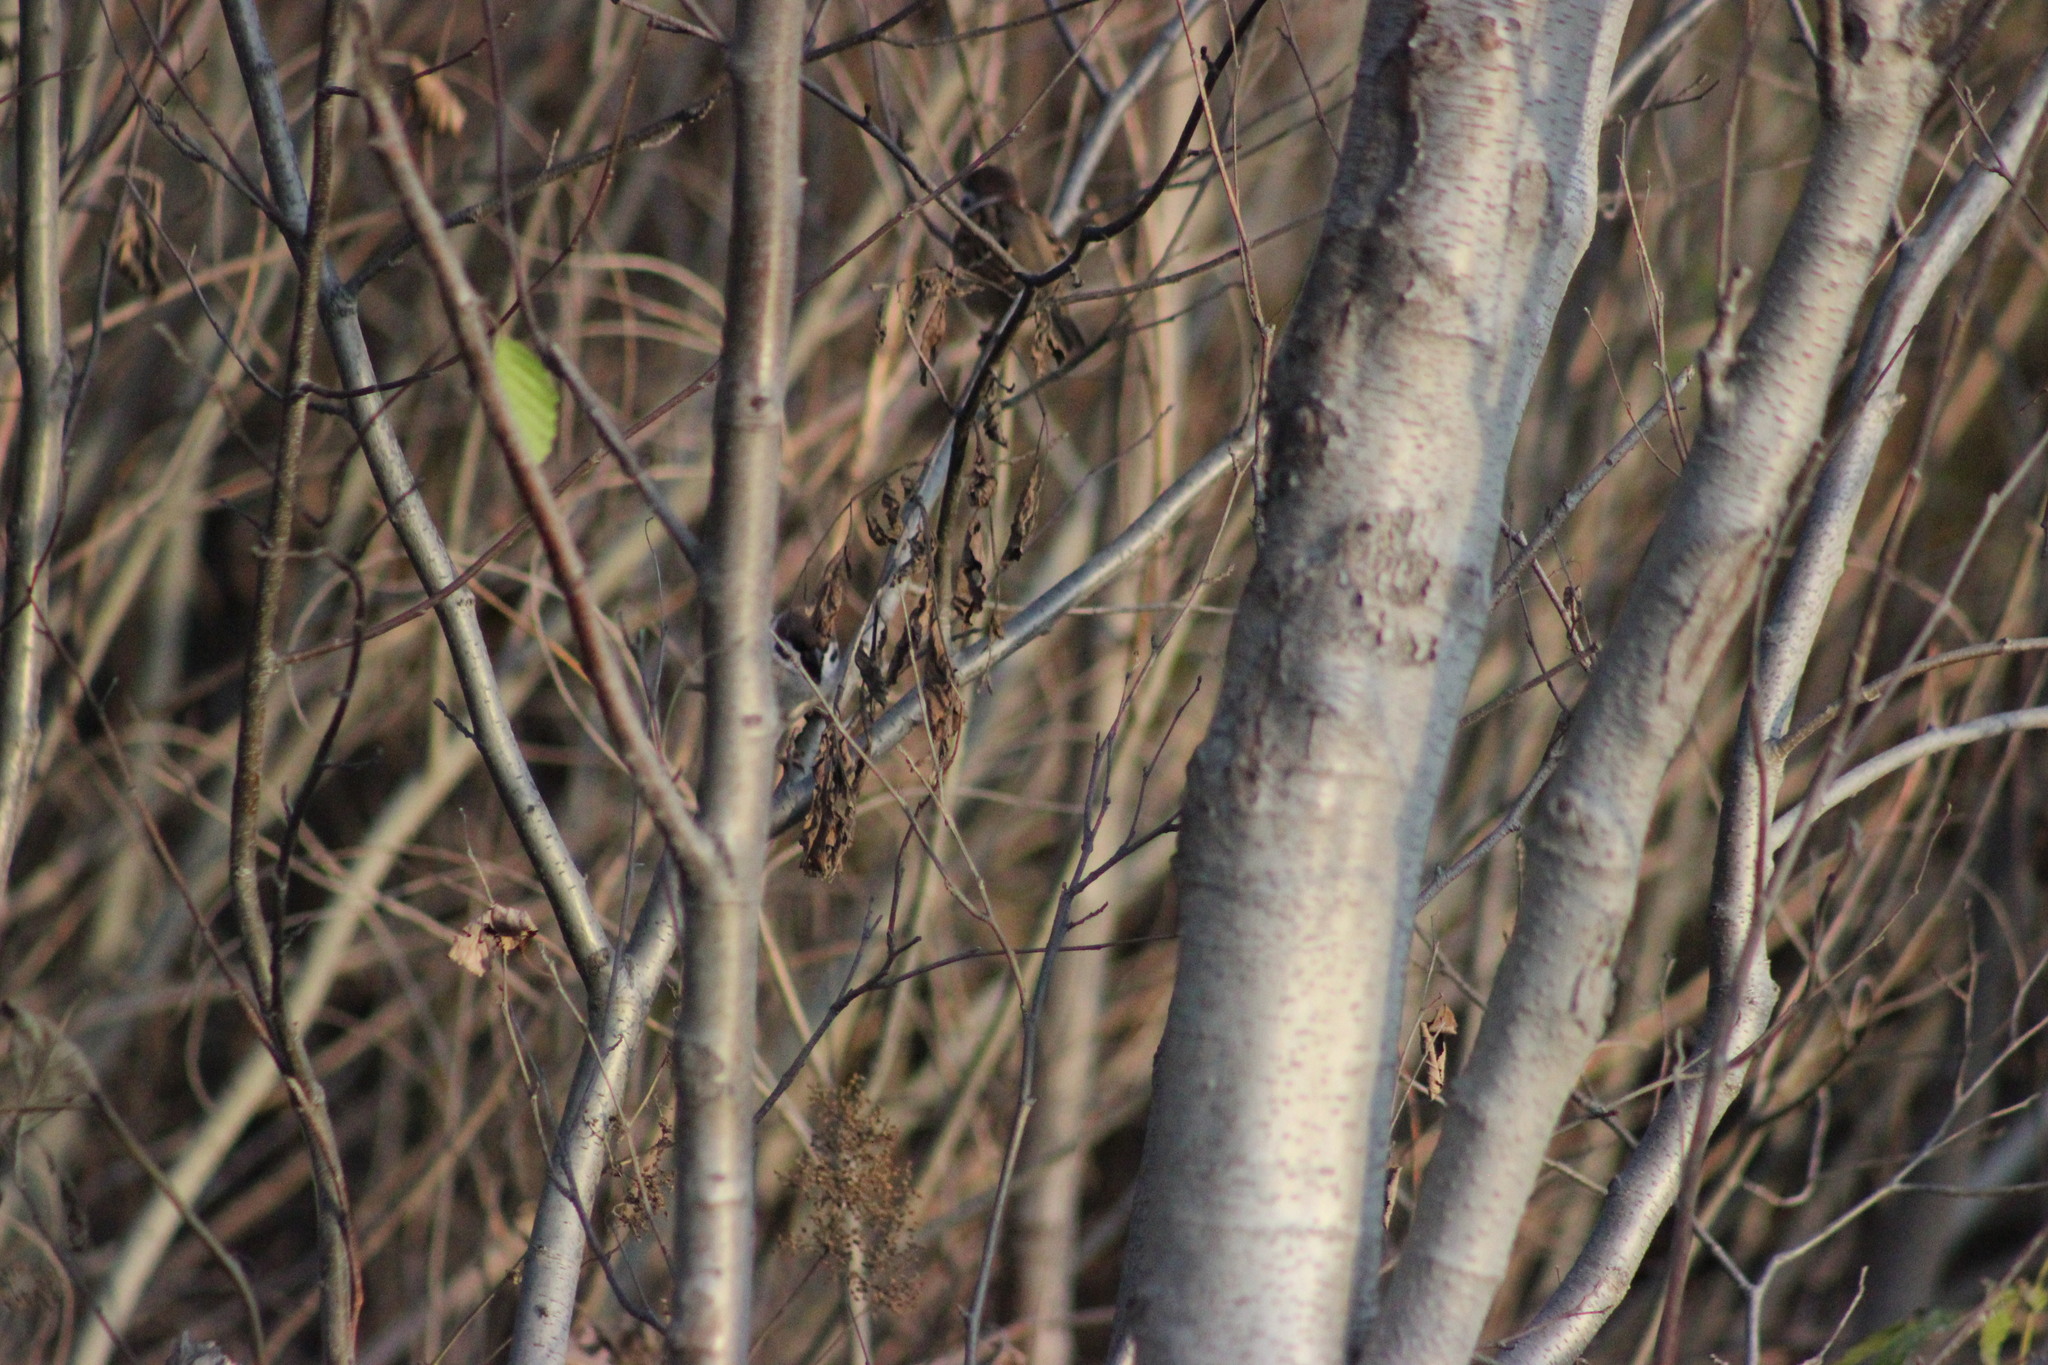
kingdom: Plantae
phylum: Tracheophyta
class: Magnoliopsida
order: Fagales
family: Betulaceae
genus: Alnus
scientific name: Alnus incana
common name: Grey alder
